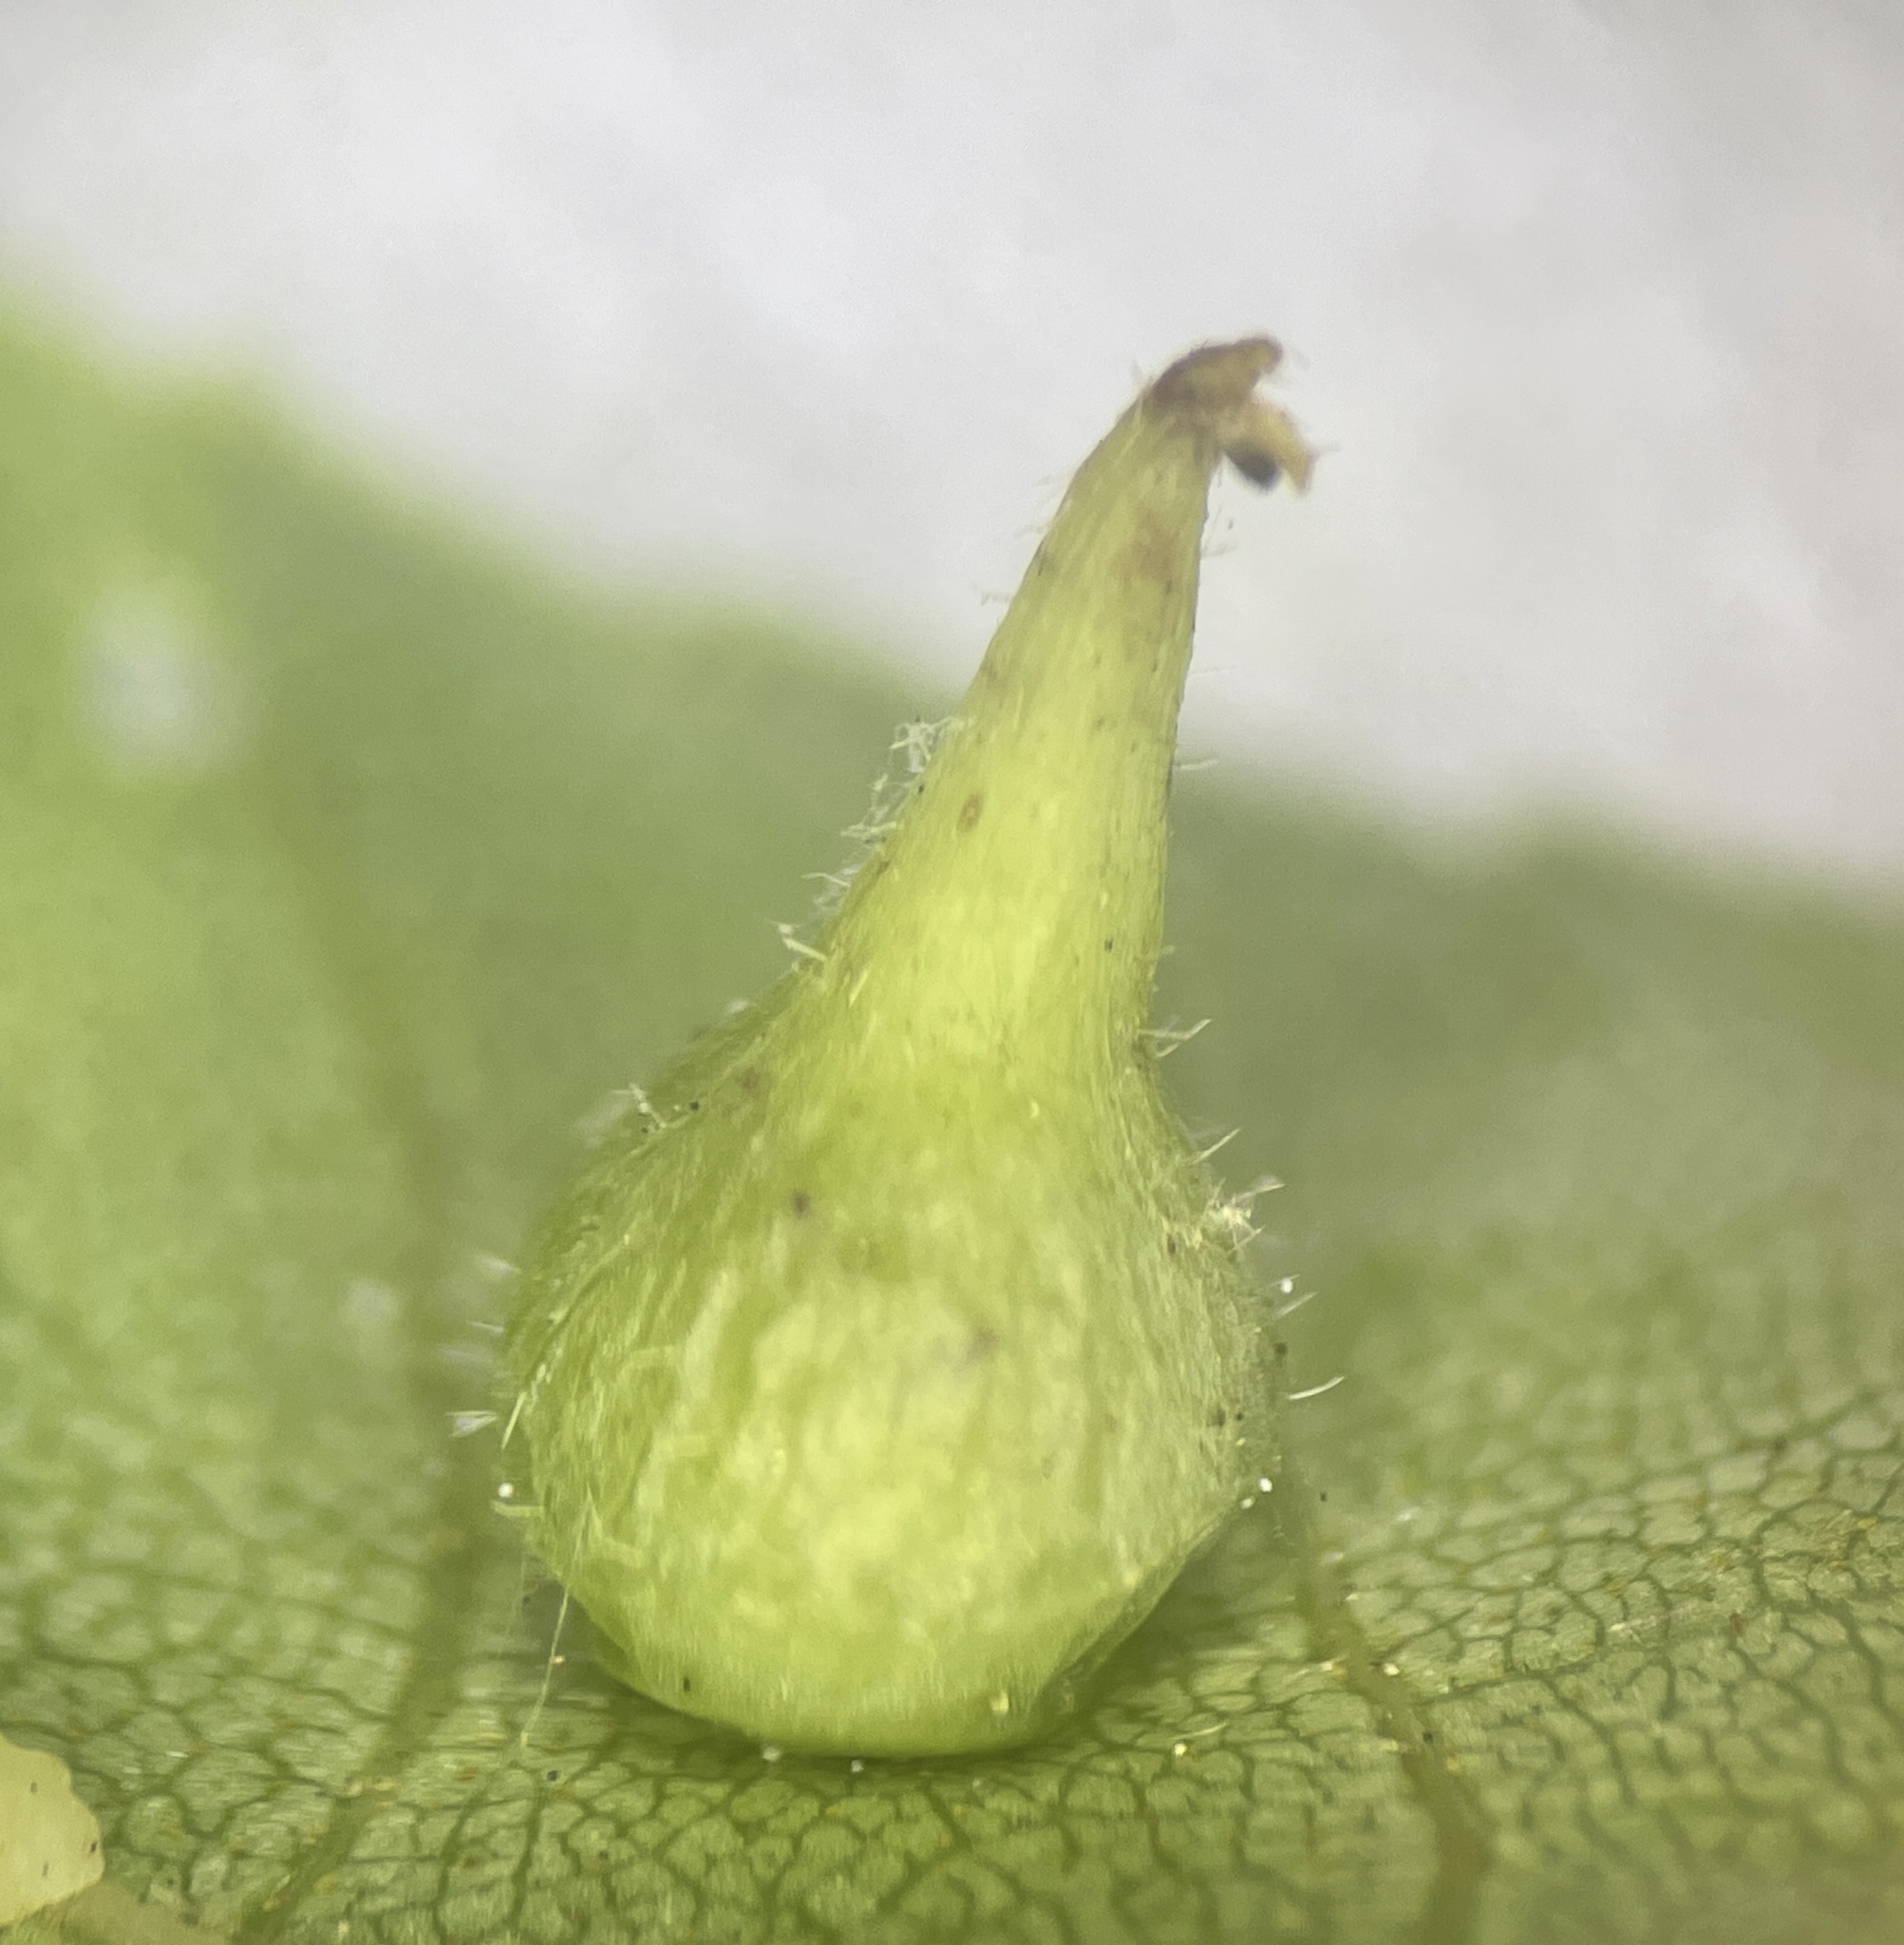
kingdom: Animalia
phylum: Arthropoda
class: Insecta
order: Diptera
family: Cecidomyiidae
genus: Caryomyia
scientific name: Caryomyia conoidea
